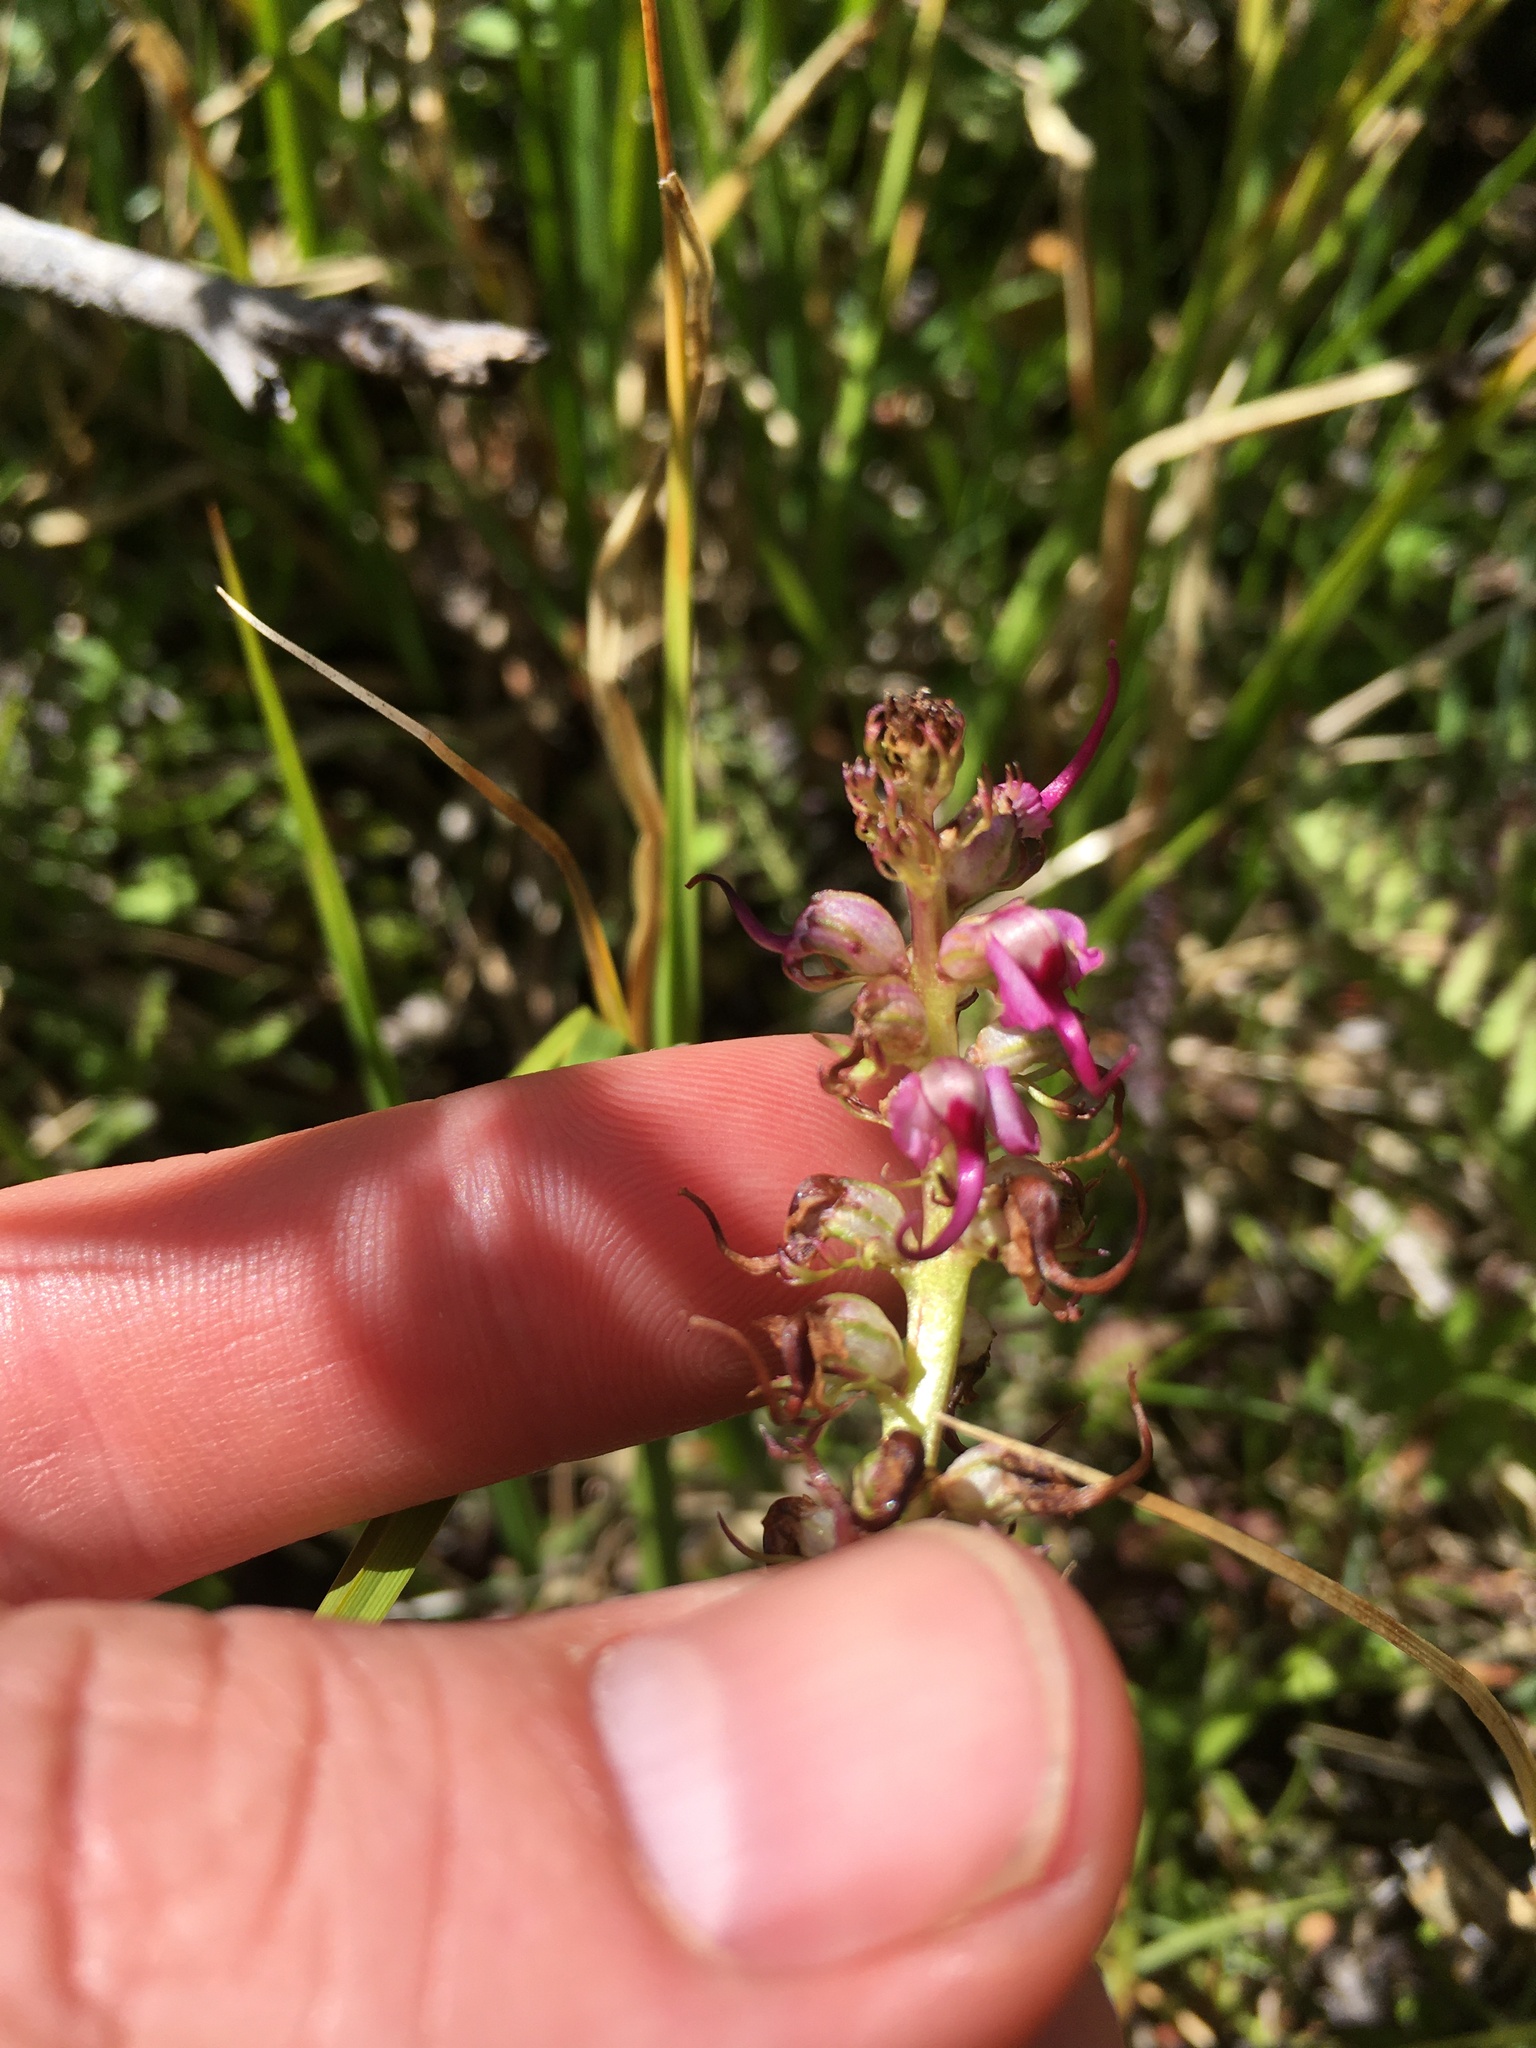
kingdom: Plantae
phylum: Tracheophyta
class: Magnoliopsida
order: Lamiales
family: Orobanchaceae
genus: Pedicularis
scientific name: Pedicularis groenlandica
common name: Elephant's-head
